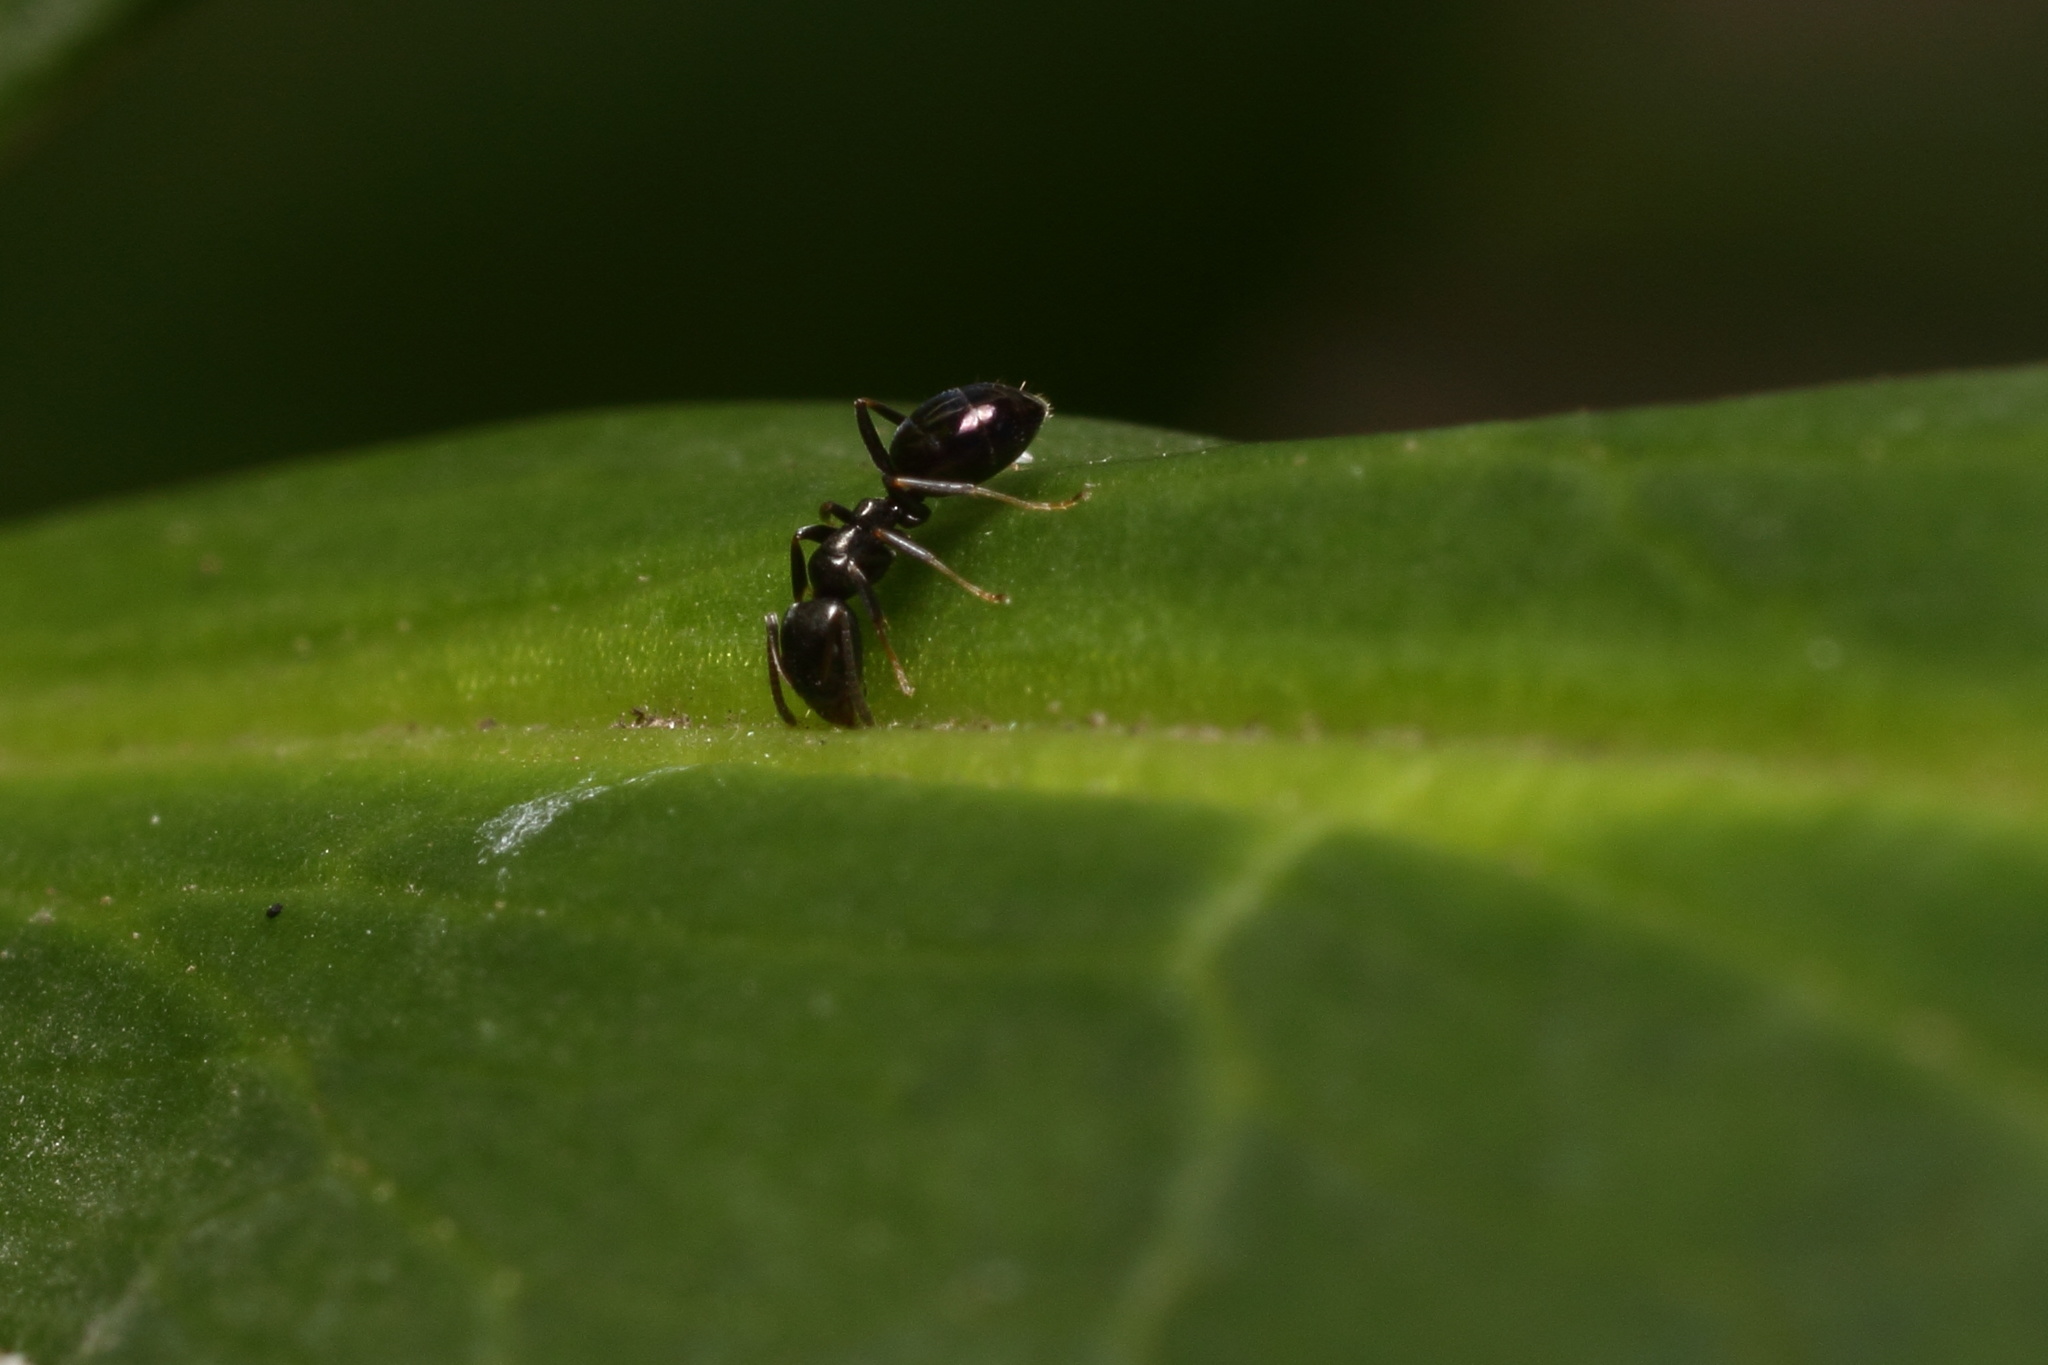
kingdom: Animalia
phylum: Arthropoda
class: Insecta
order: Hymenoptera
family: Formicidae
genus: Ochetellus
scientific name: Ochetellus glaber
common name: Ant
